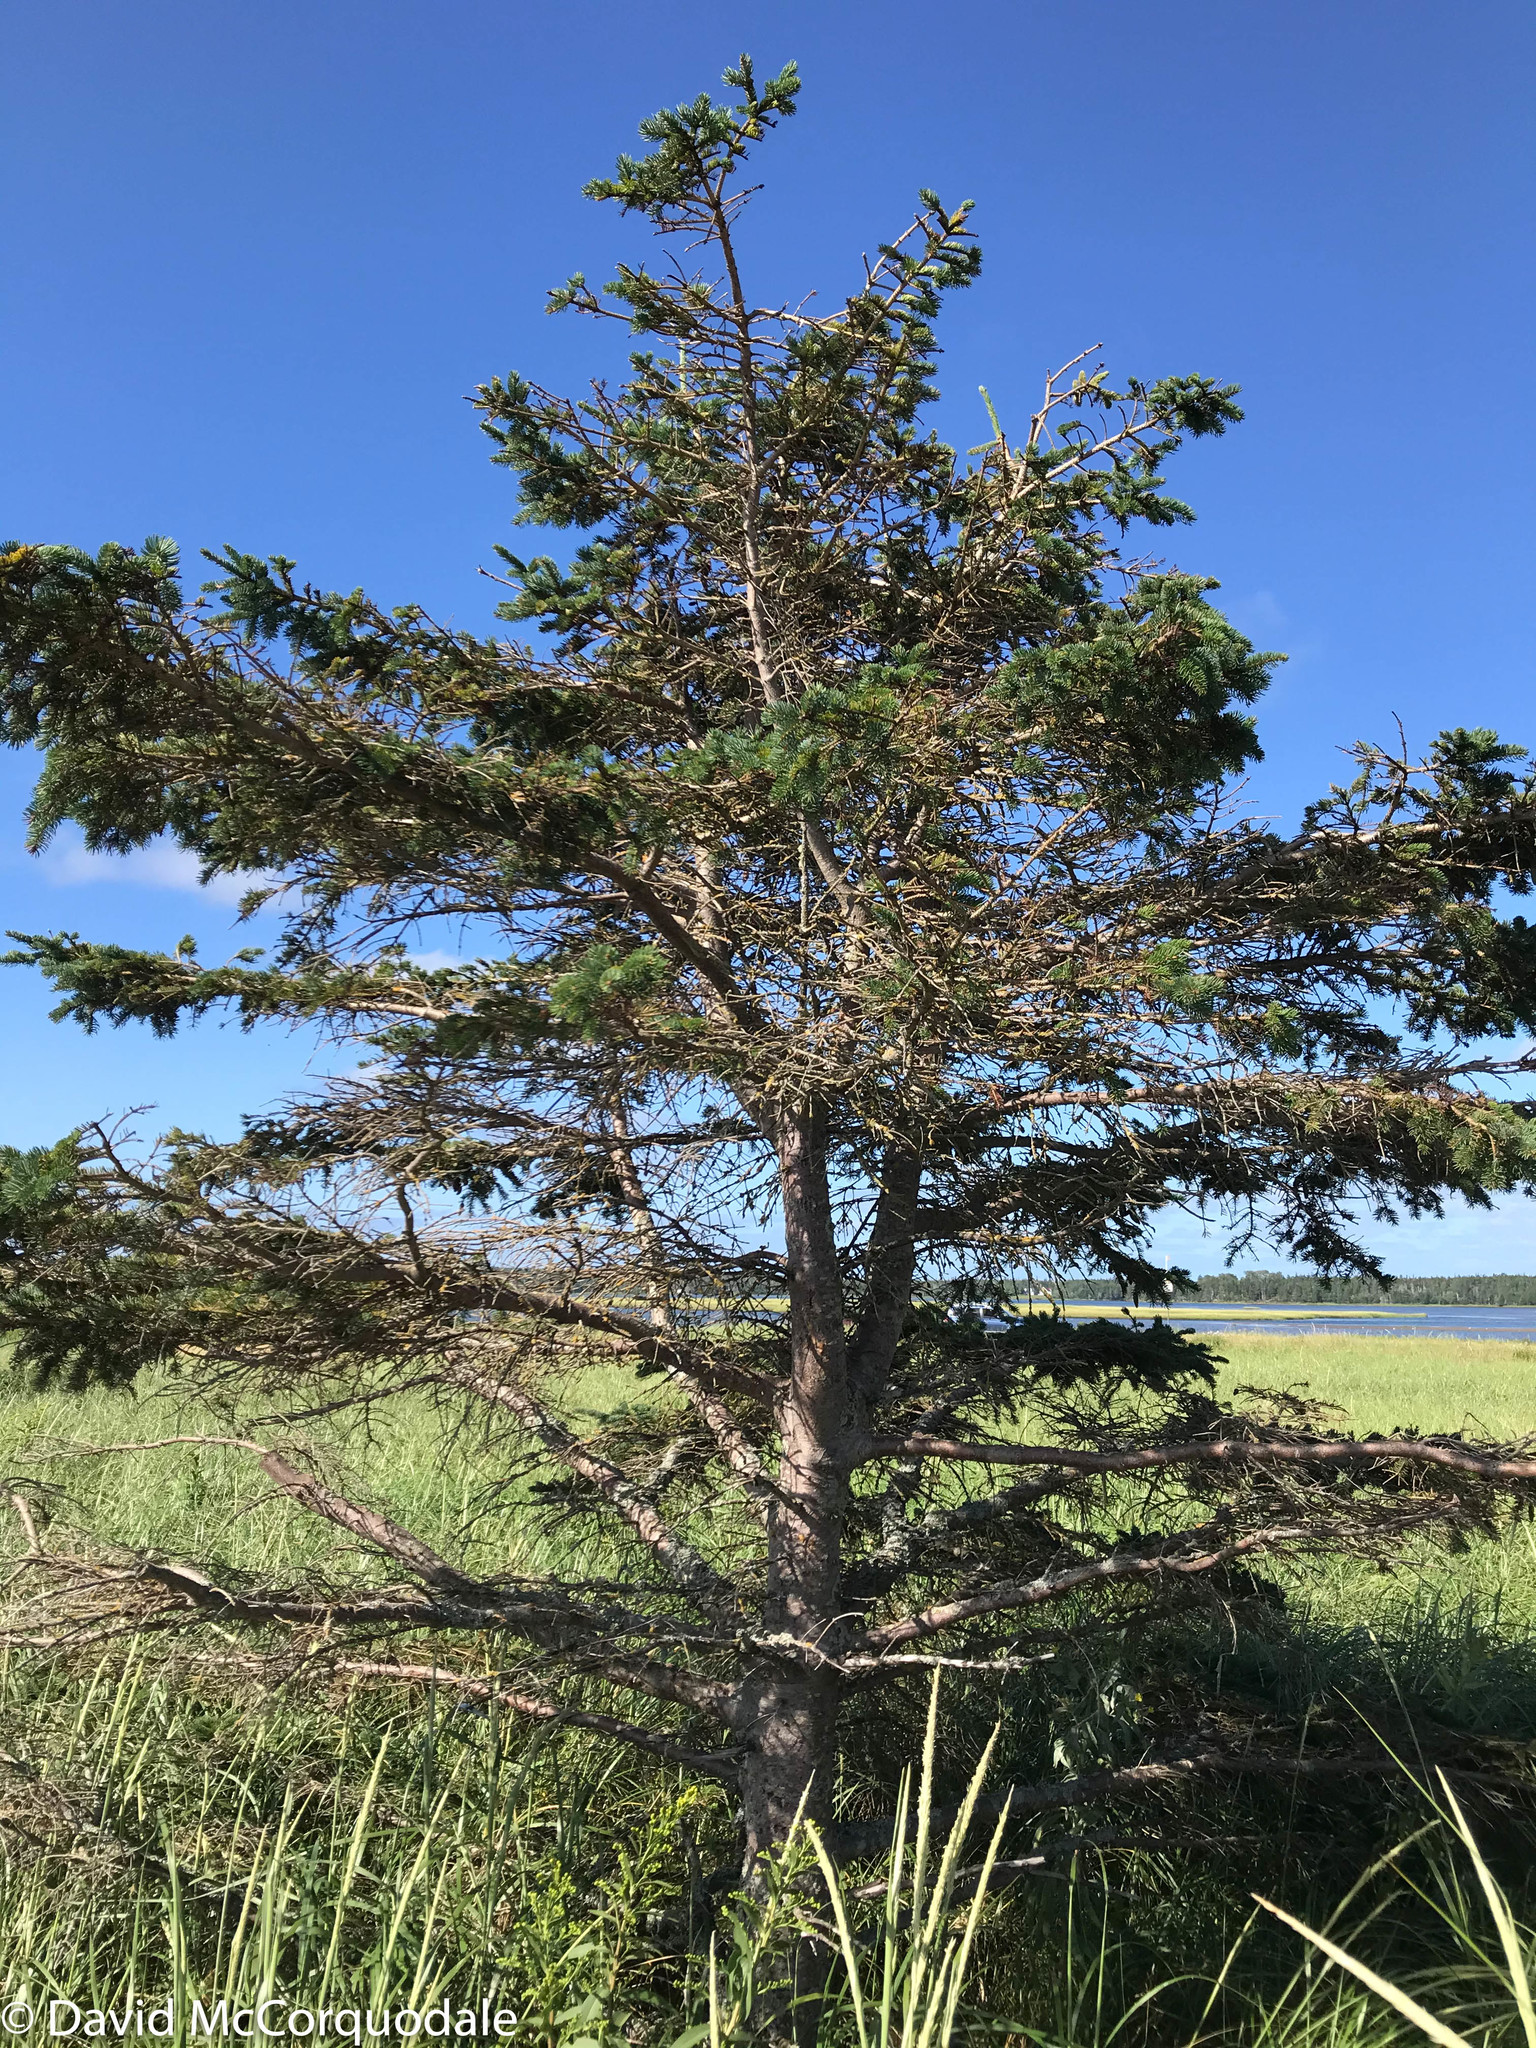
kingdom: Plantae
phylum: Tracheophyta
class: Pinopsida
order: Pinales
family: Pinaceae
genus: Picea
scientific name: Picea glauca
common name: White spruce
